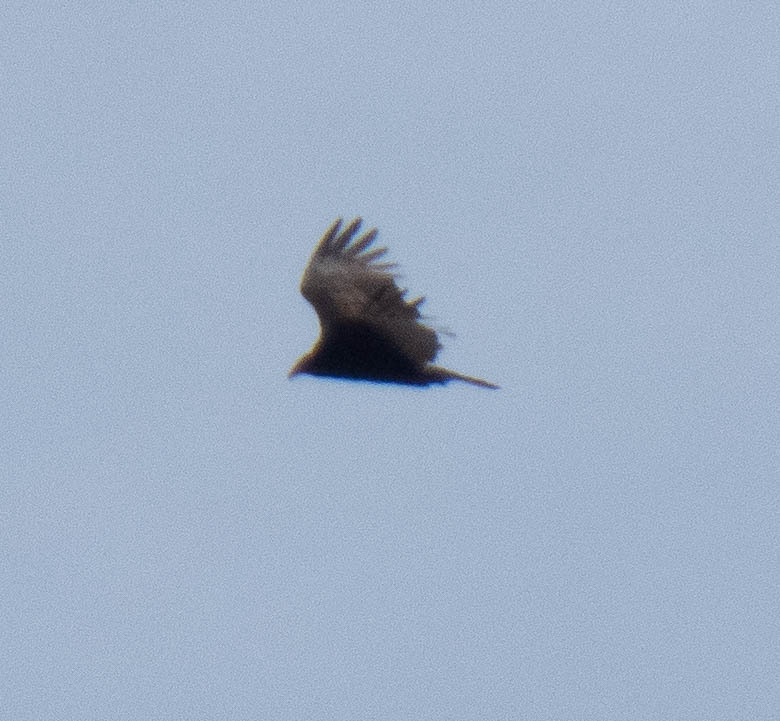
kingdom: Animalia
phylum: Chordata
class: Aves
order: Accipitriformes
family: Cathartidae
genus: Cathartes
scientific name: Cathartes aura
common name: Turkey vulture
